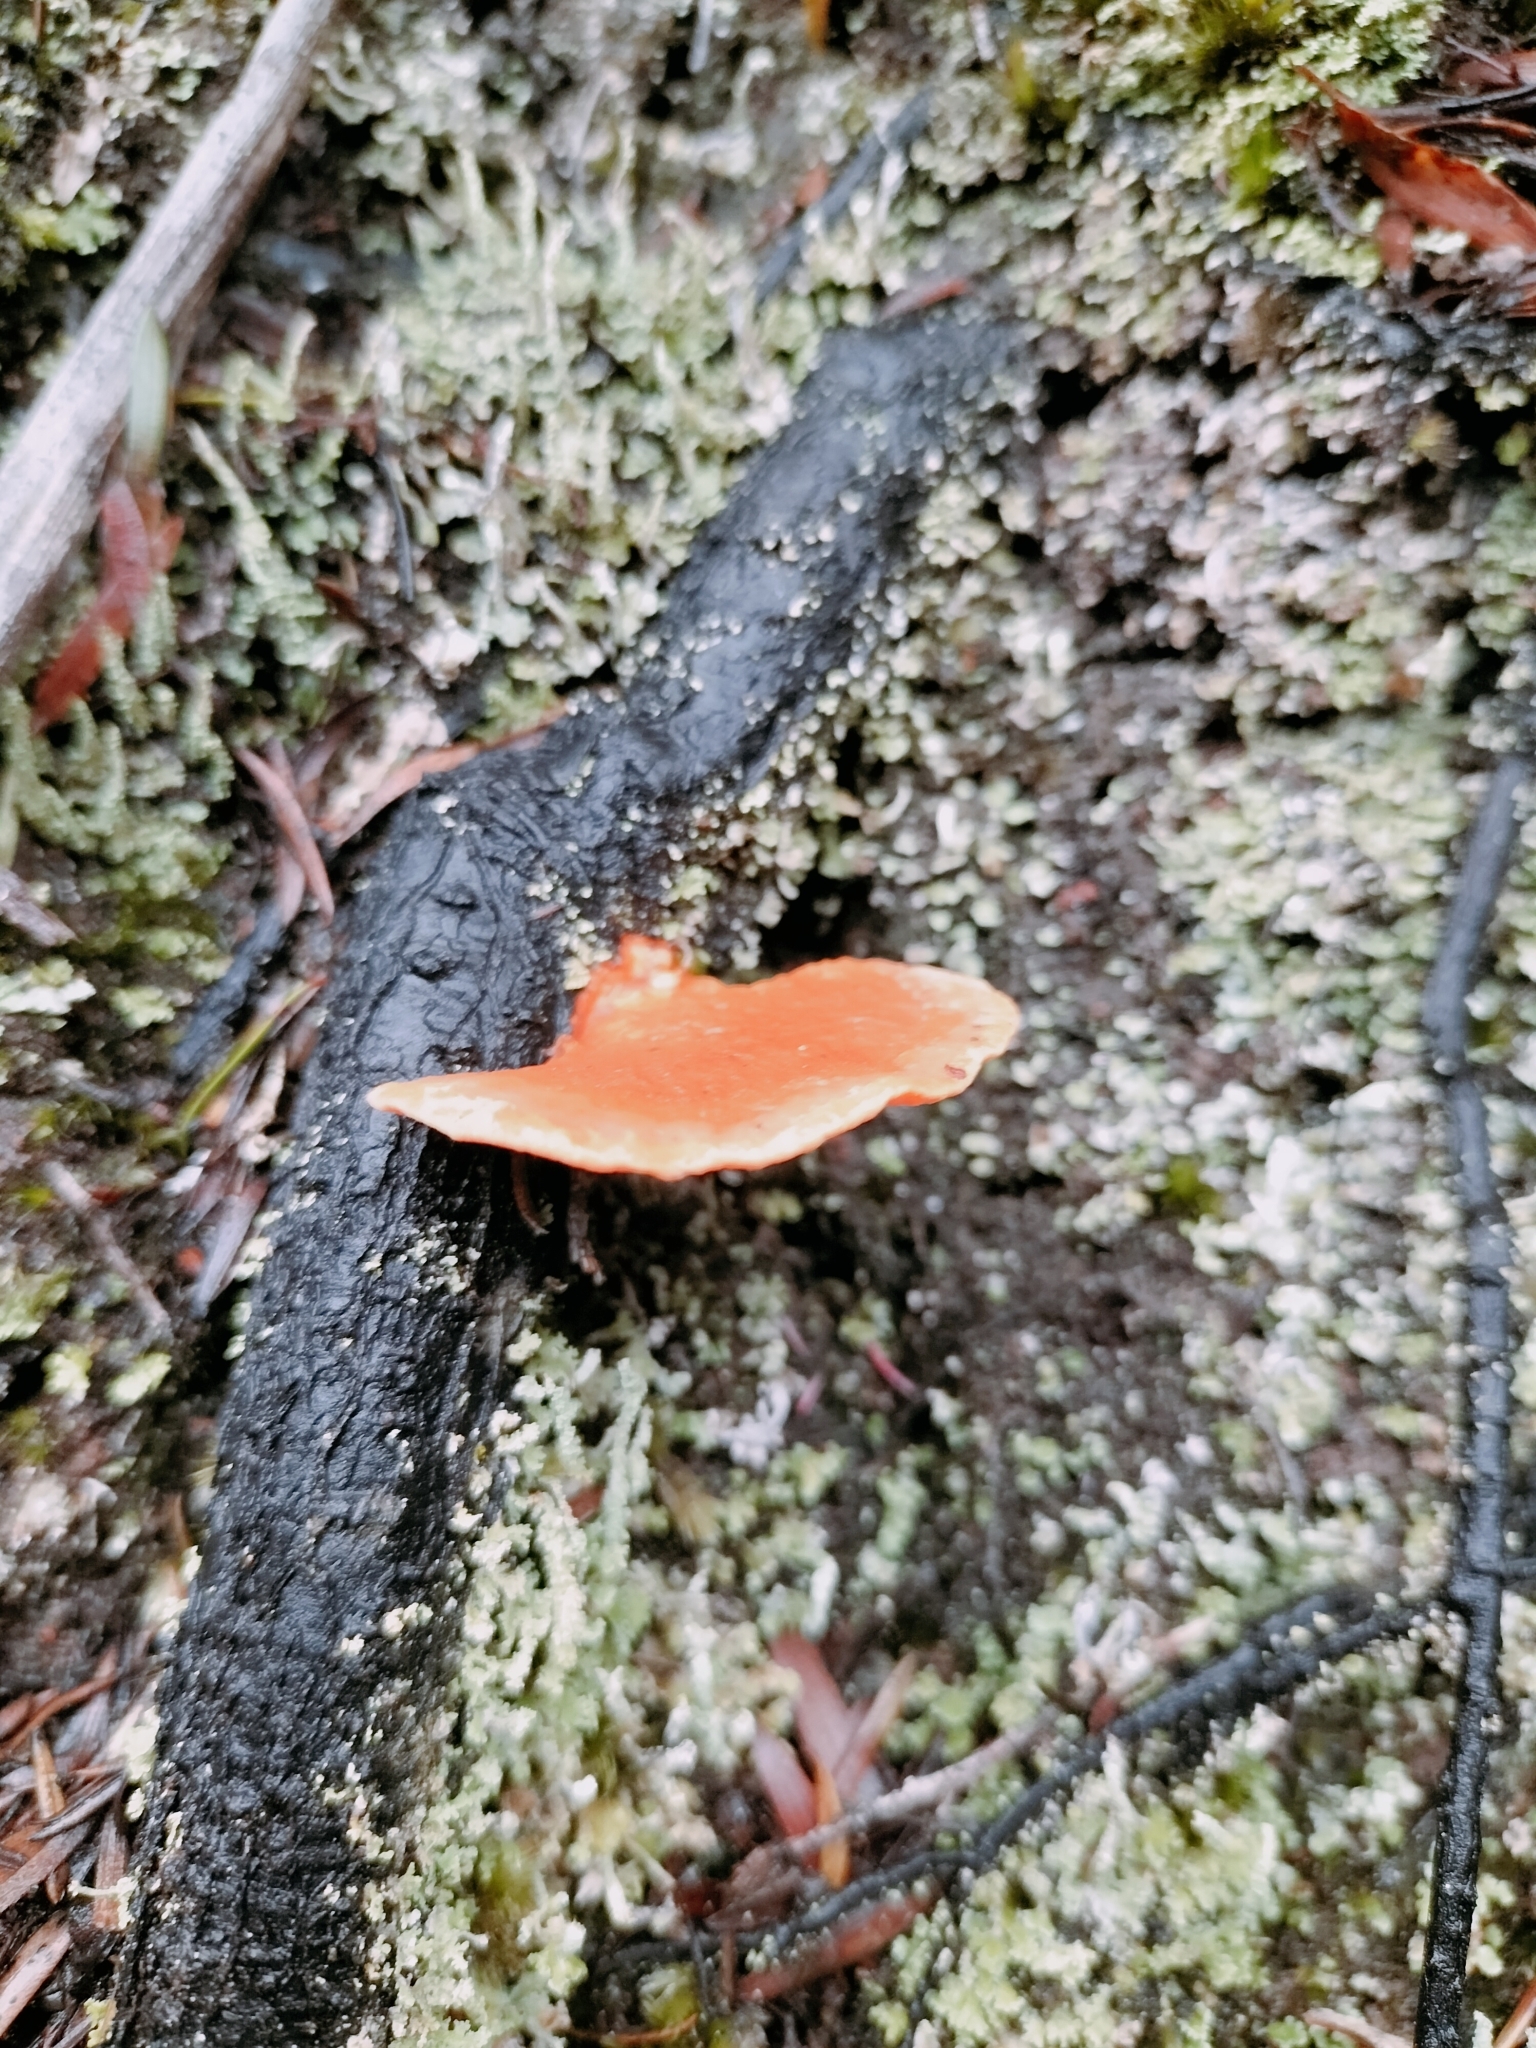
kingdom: Fungi
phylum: Basidiomycota
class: Agaricomycetes
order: Polyporales
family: Polyporaceae
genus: Trametes
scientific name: Trametes coccinea
